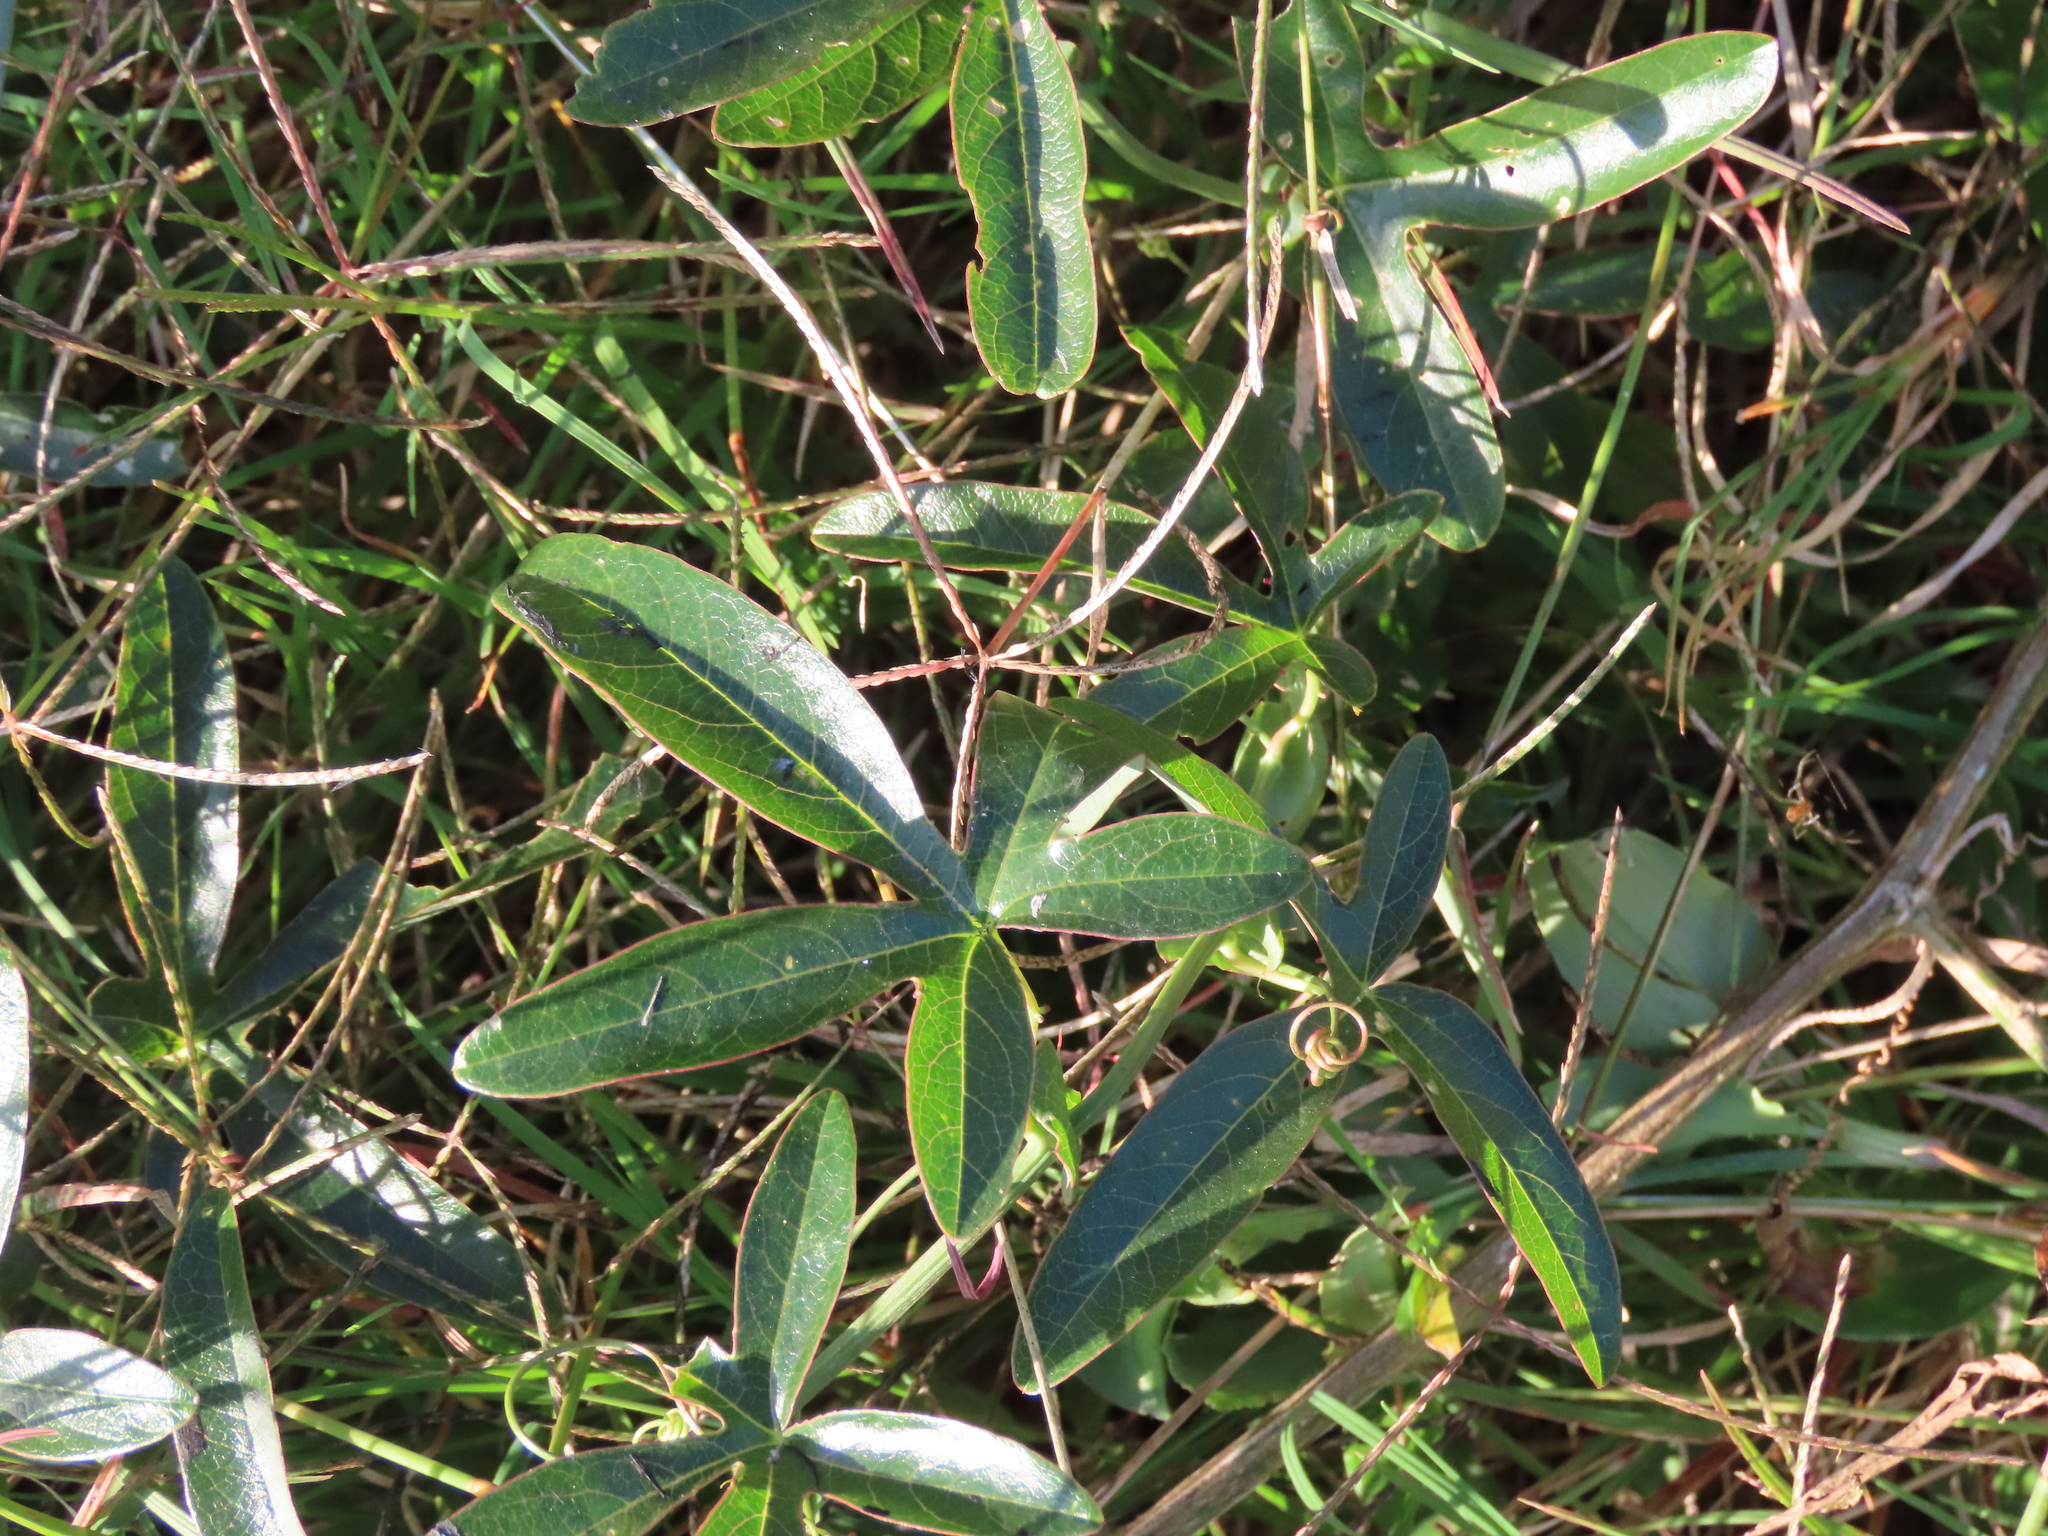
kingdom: Plantae
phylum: Tracheophyta
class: Magnoliopsida
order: Malpighiales
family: Passifloraceae
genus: Passiflora
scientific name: Passiflora caerulea
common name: Blue passionflower
